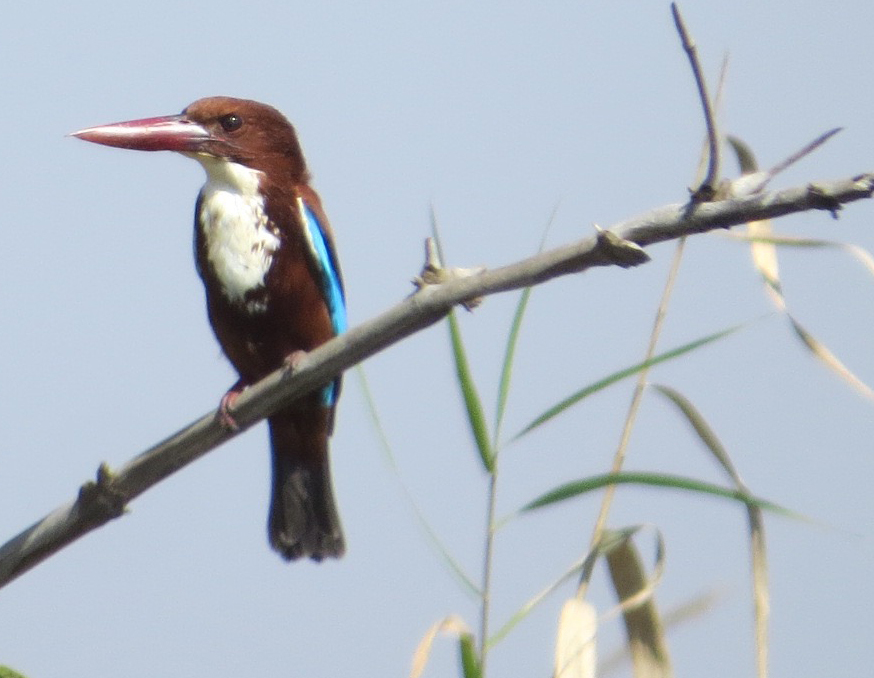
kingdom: Animalia
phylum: Chordata
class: Aves
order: Coraciiformes
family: Alcedinidae
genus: Halcyon
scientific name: Halcyon smyrnensis
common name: White-throated kingfisher
